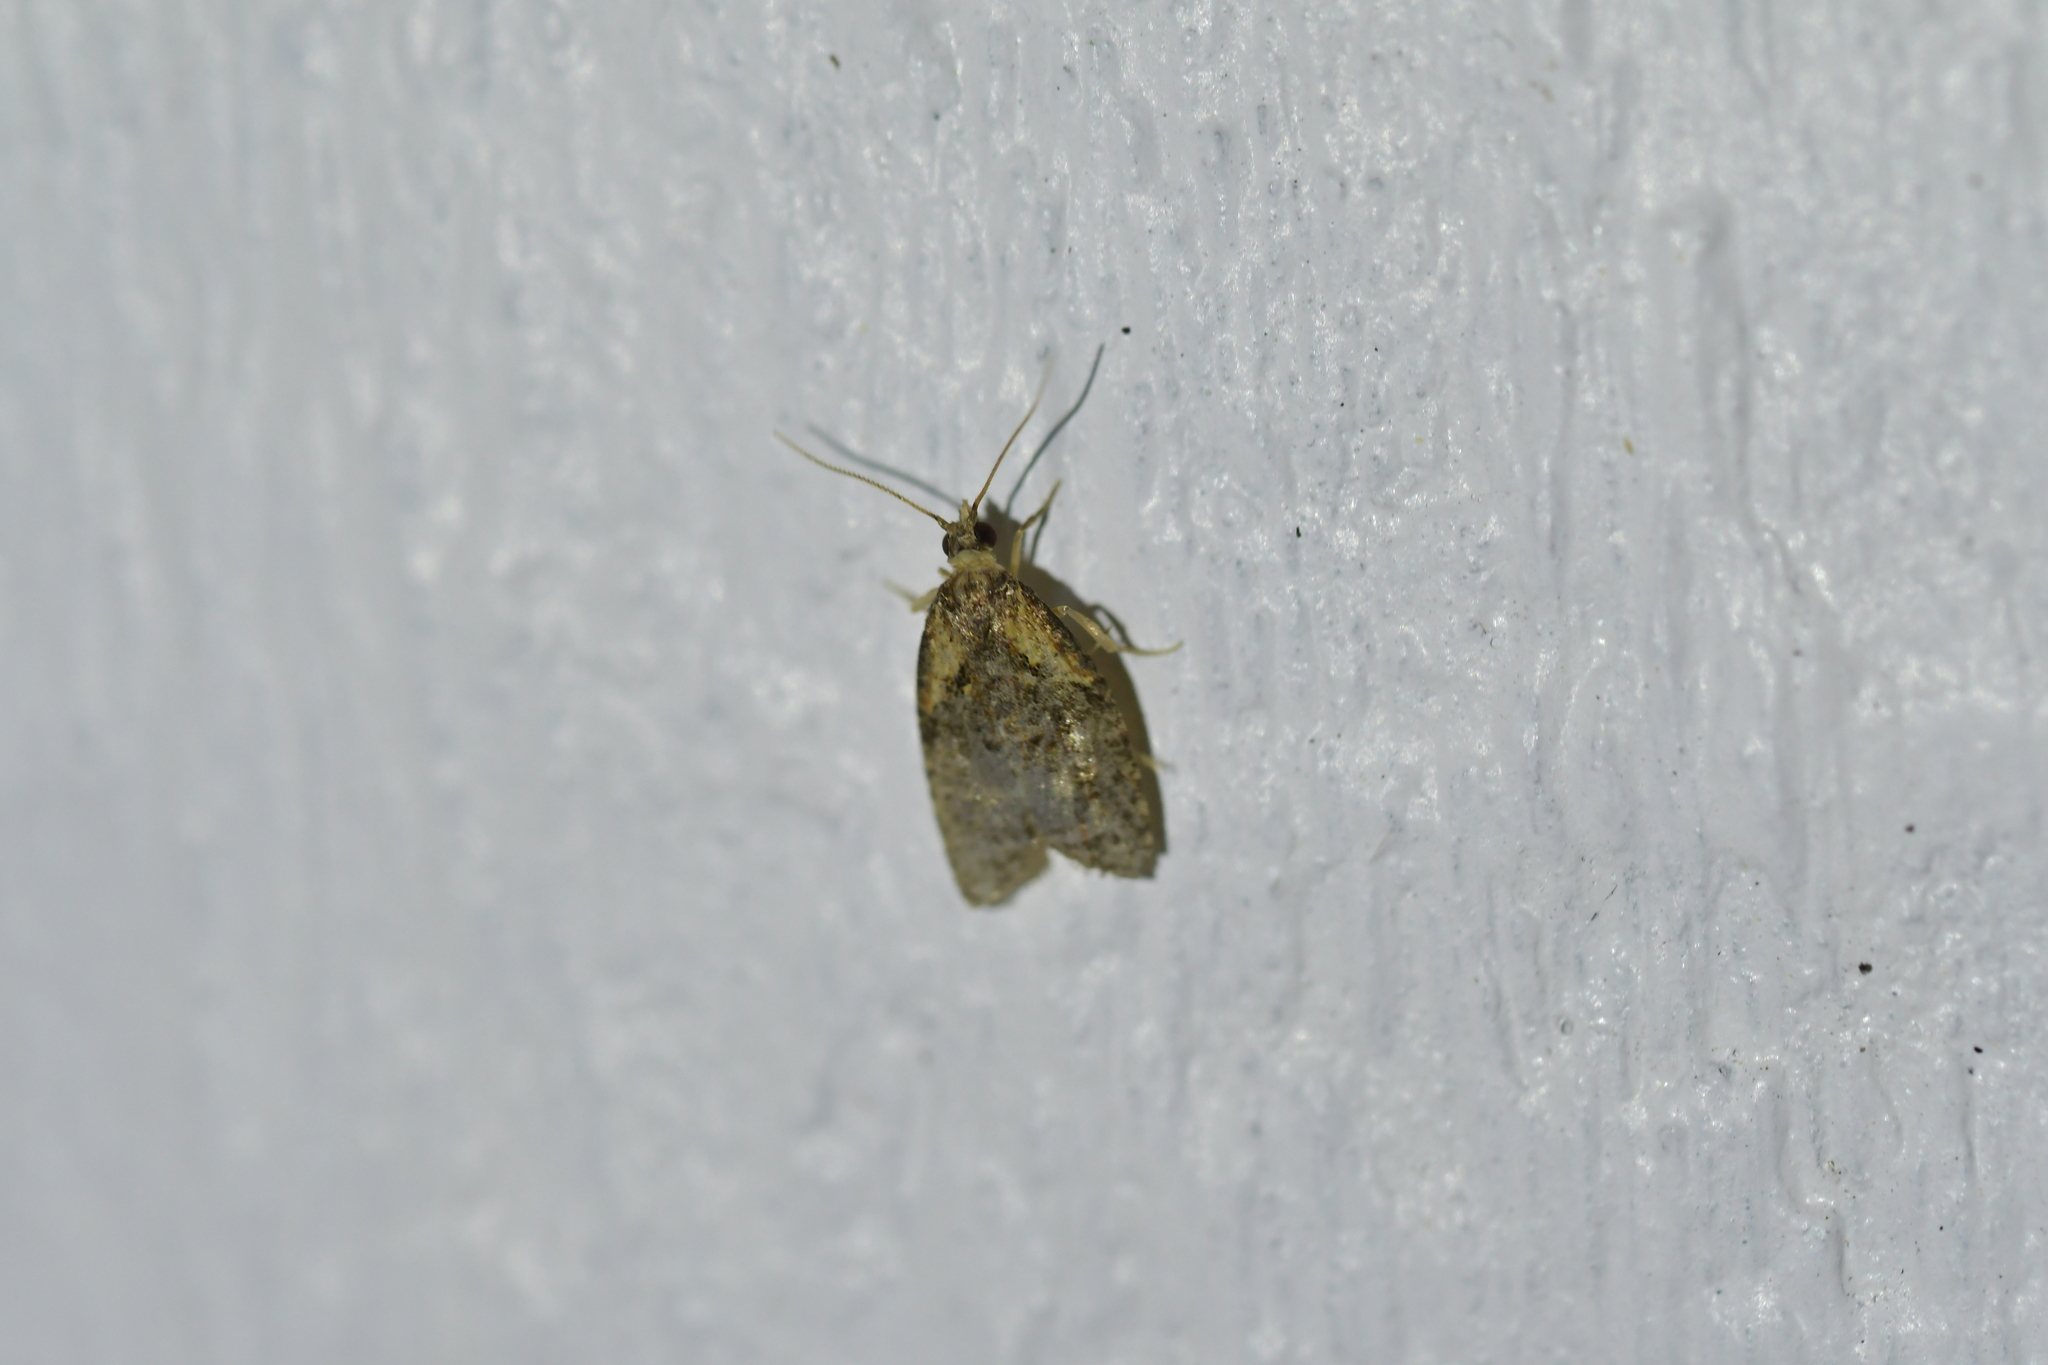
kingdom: Animalia
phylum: Arthropoda
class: Insecta
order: Lepidoptera
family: Tortricidae
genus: Capua
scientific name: Capua intractana
